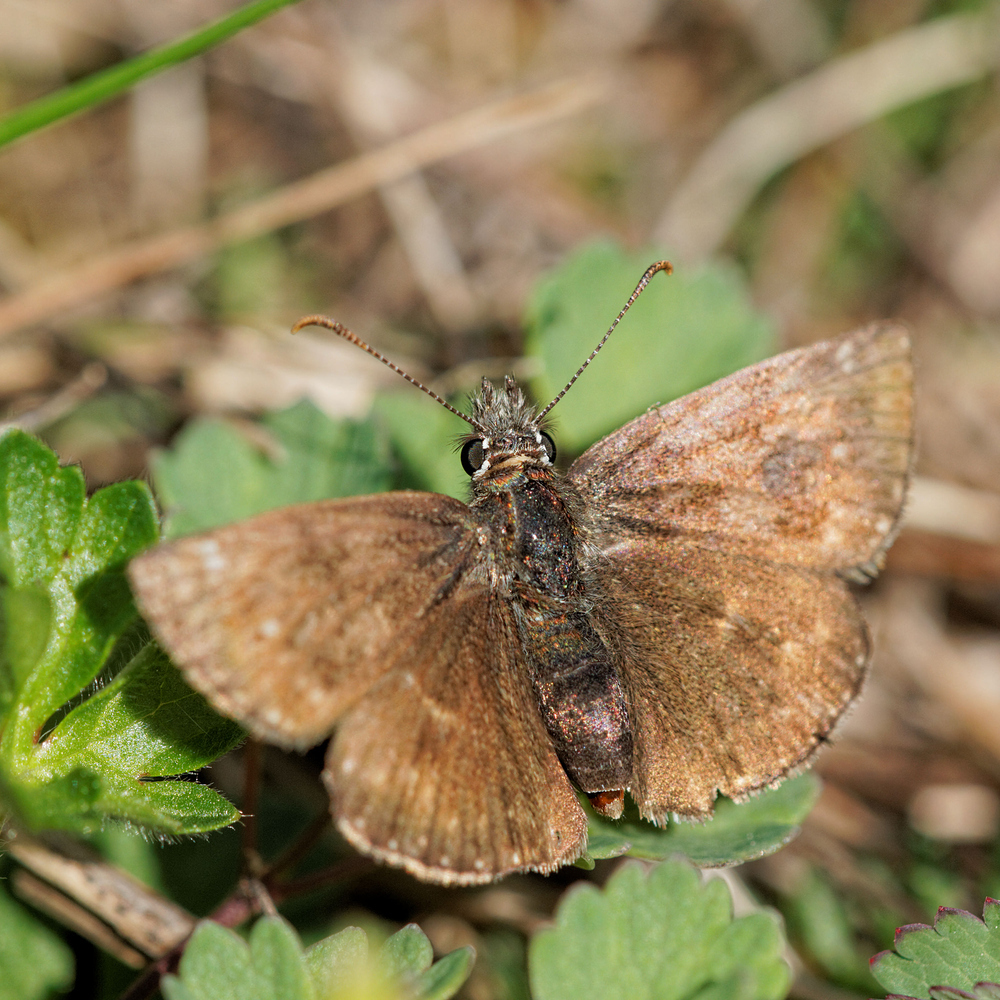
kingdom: Animalia
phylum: Arthropoda
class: Insecta
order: Lepidoptera
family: Hesperiidae
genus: Erynnis
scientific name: Erynnis tages
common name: Dingy skipper
